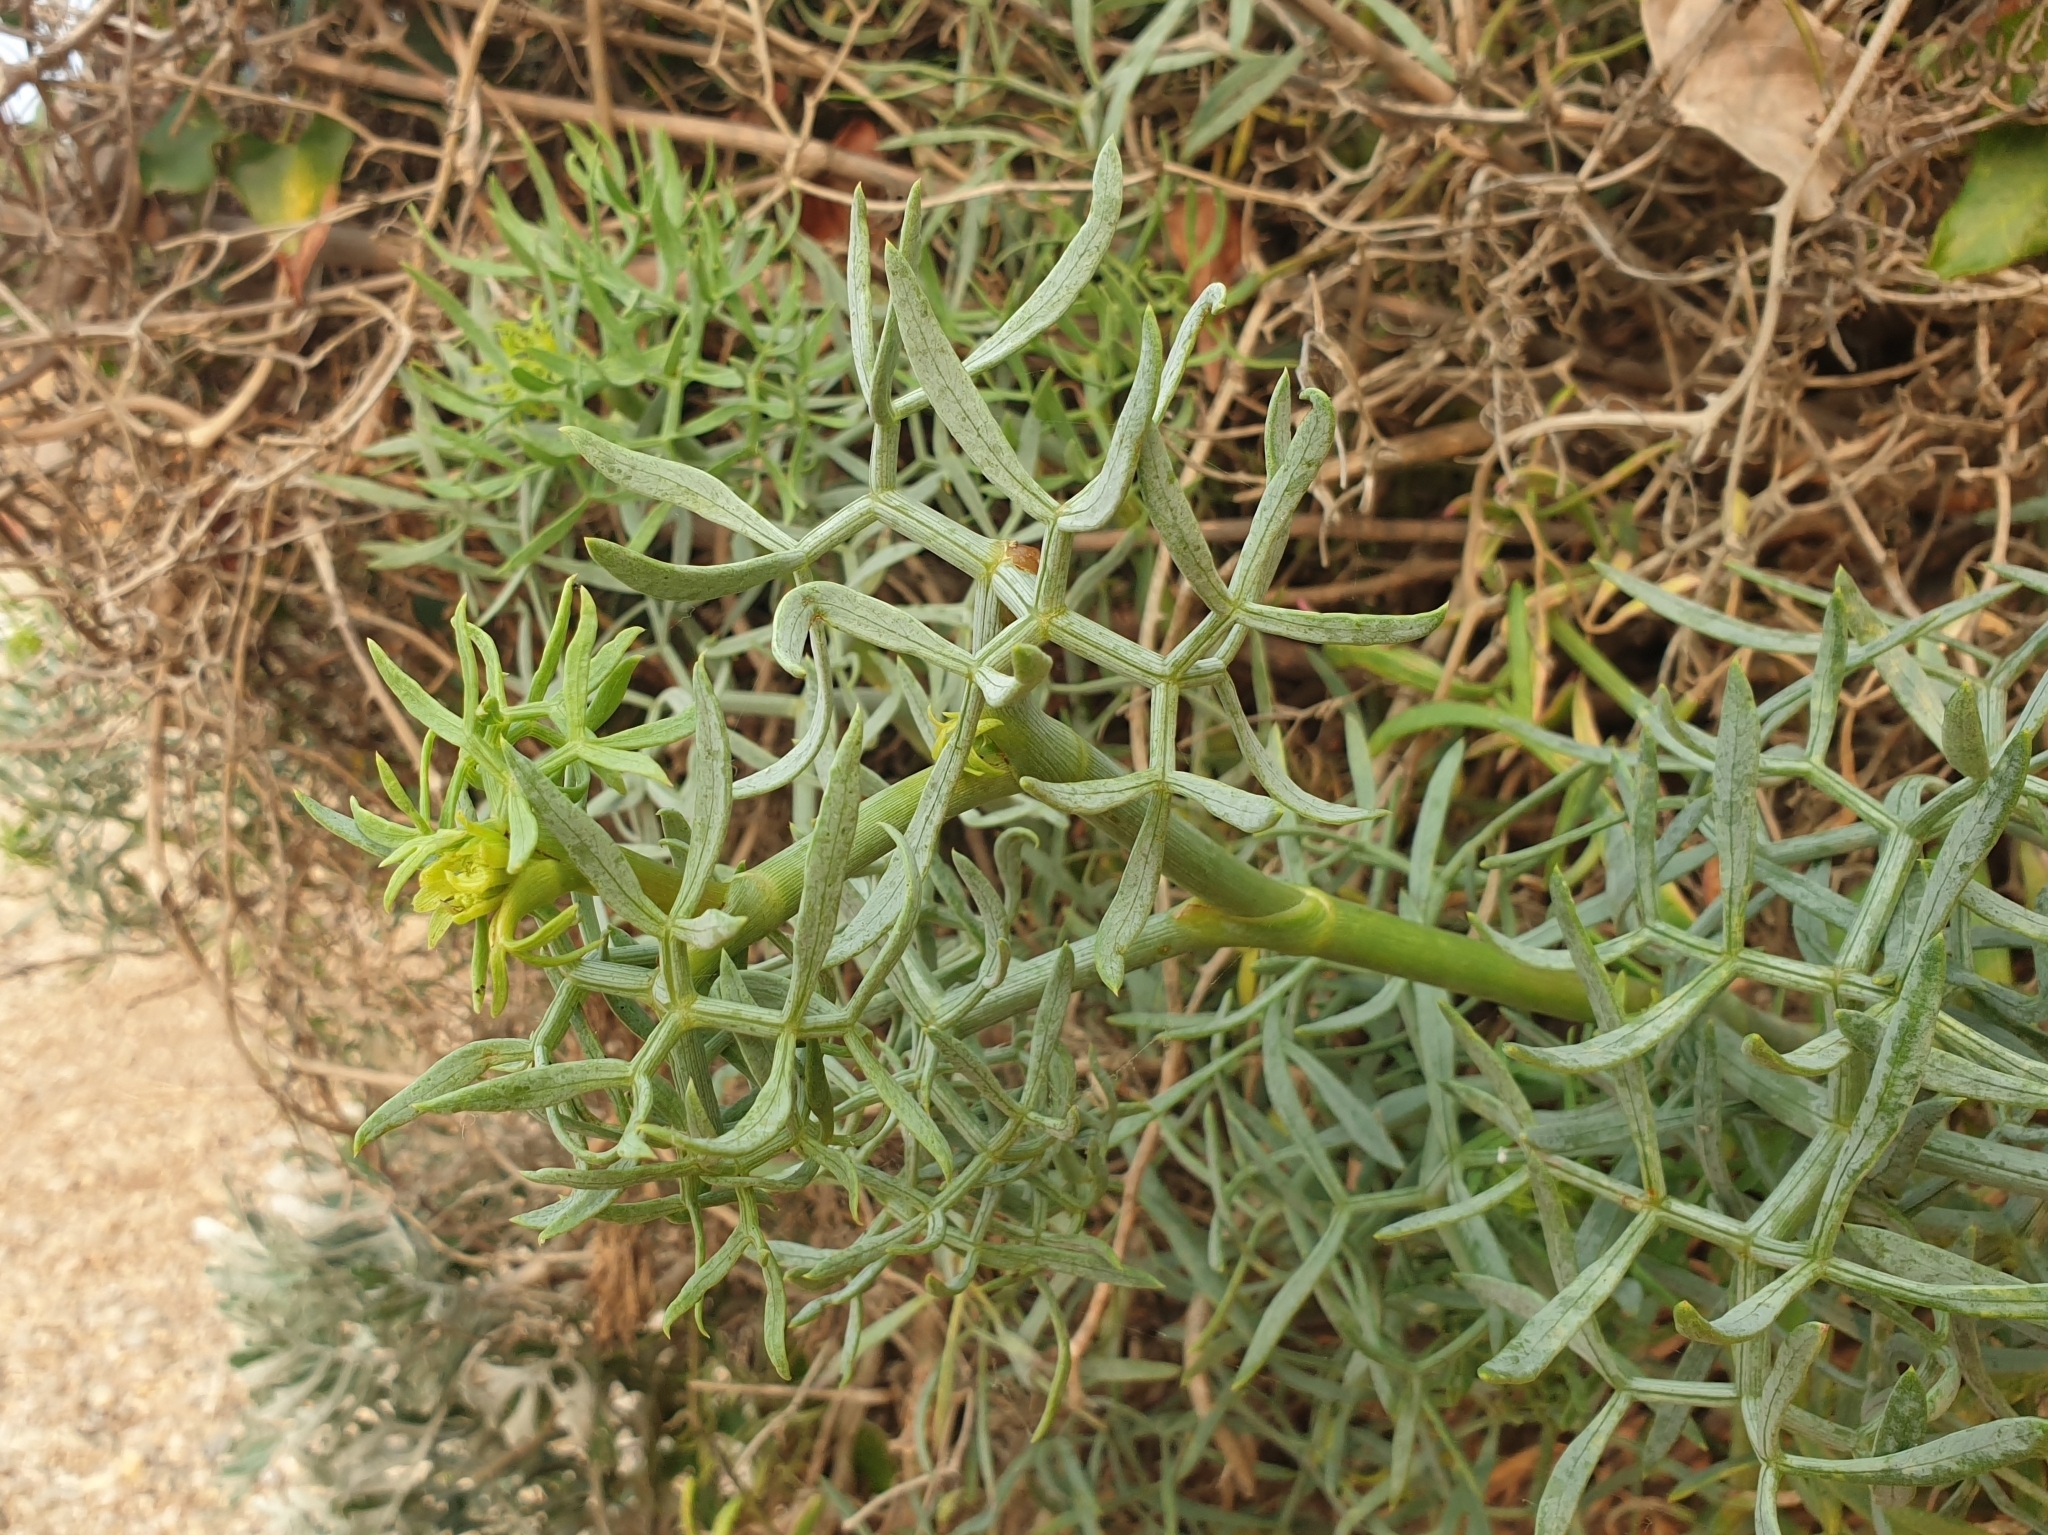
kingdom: Plantae
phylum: Tracheophyta
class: Magnoliopsida
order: Apiales
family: Apiaceae
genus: Crithmum
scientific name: Crithmum maritimum
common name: Rock samphire
